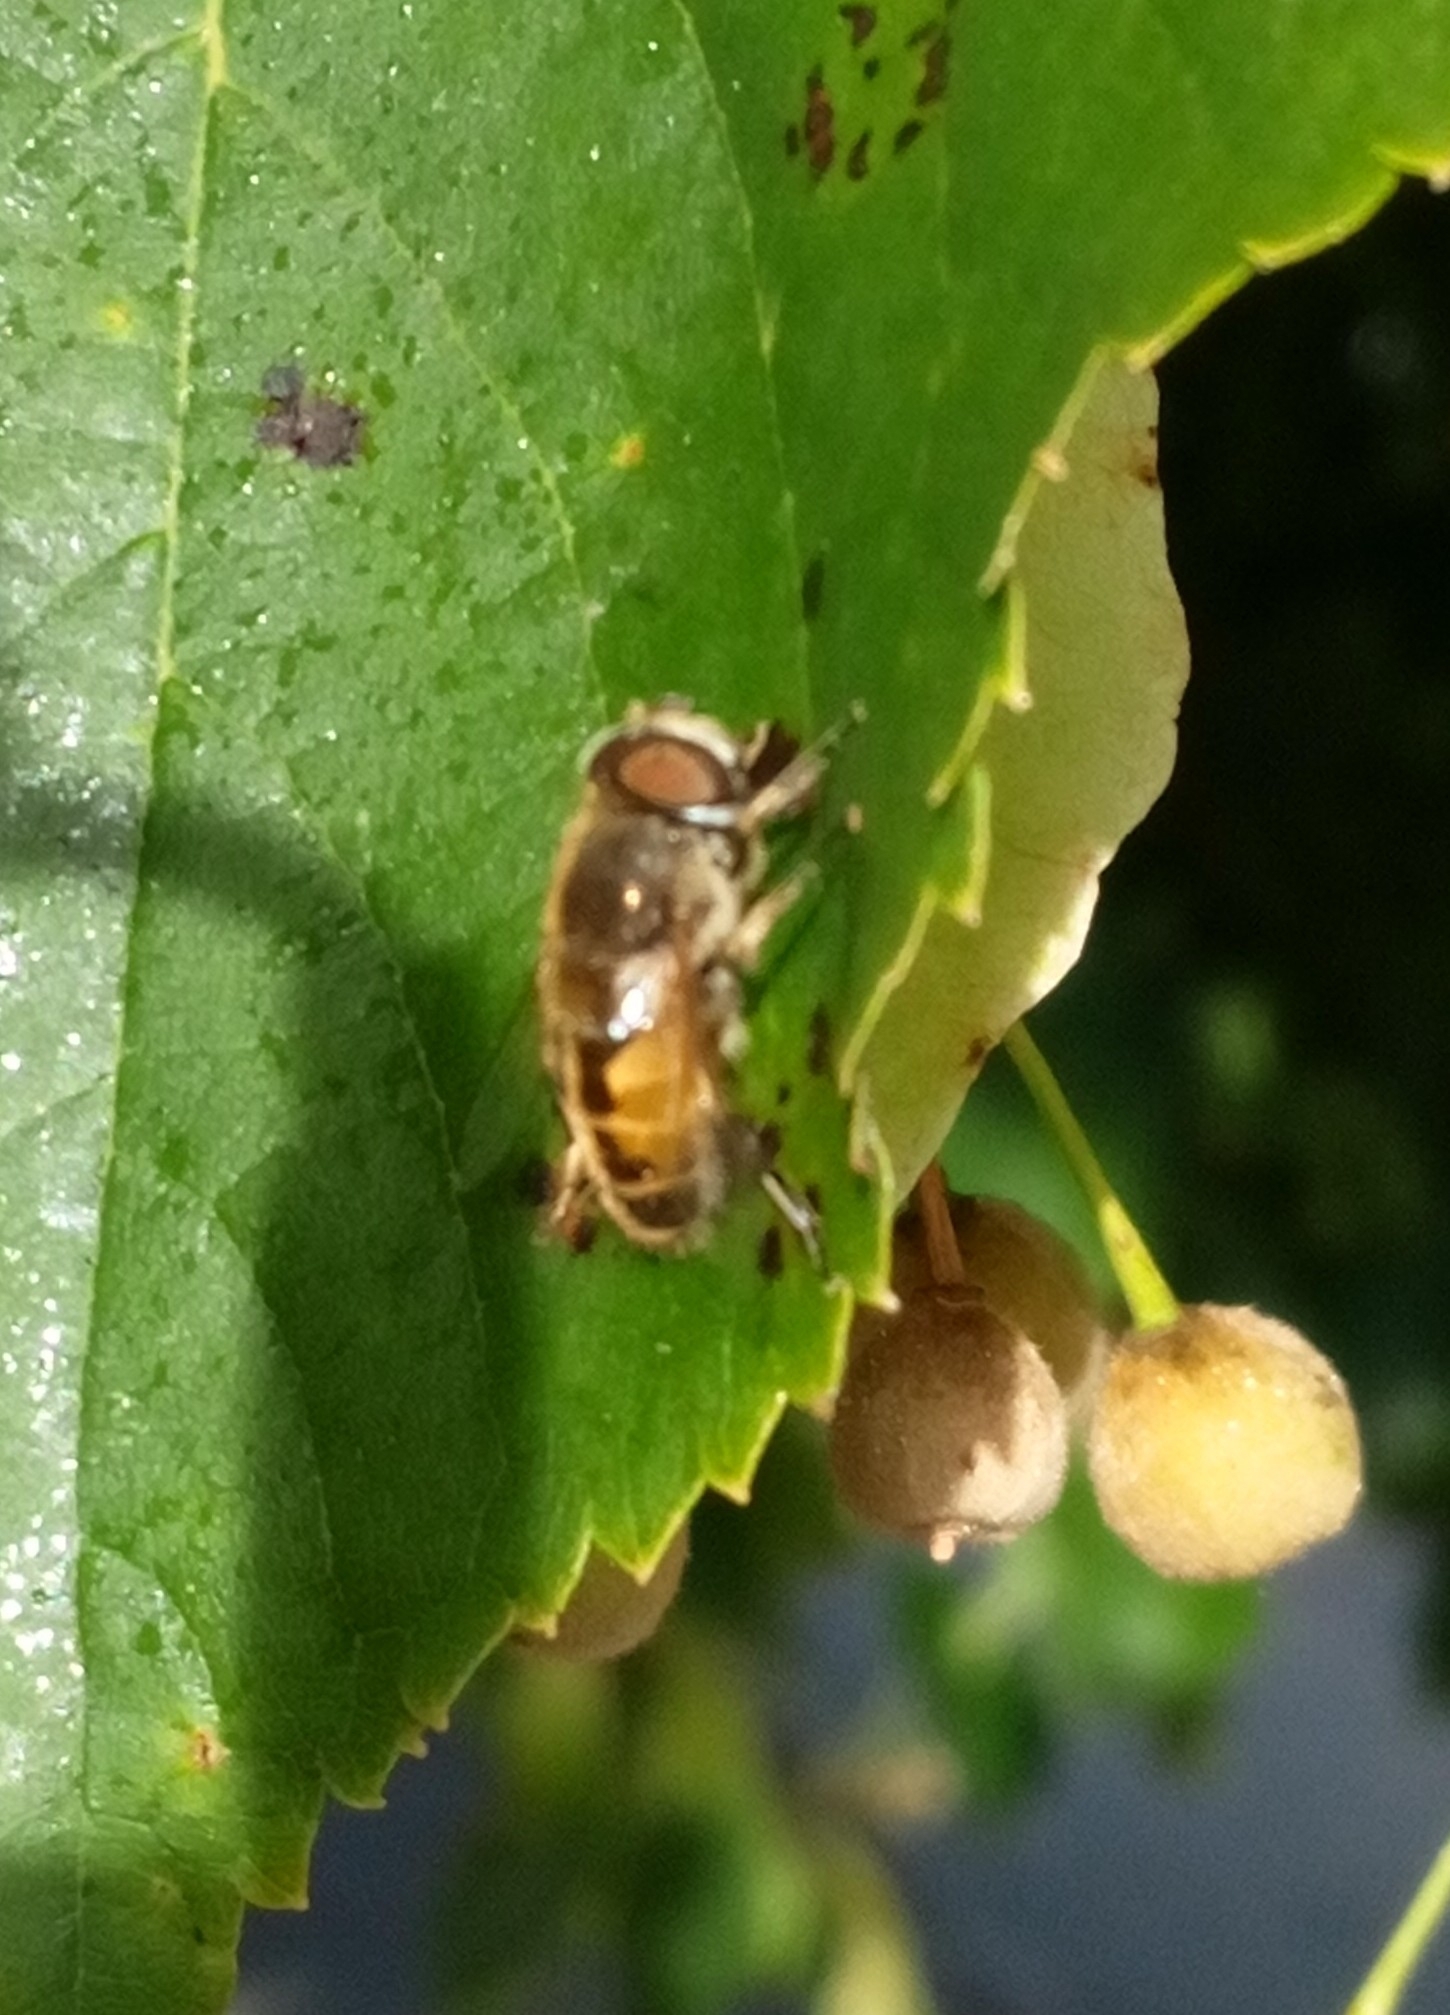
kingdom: Animalia
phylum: Arthropoda
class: Insecta
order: Diptera
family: Syrphidae
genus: Eristalis
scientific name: Eristalis arbustorum
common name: Hover fly
